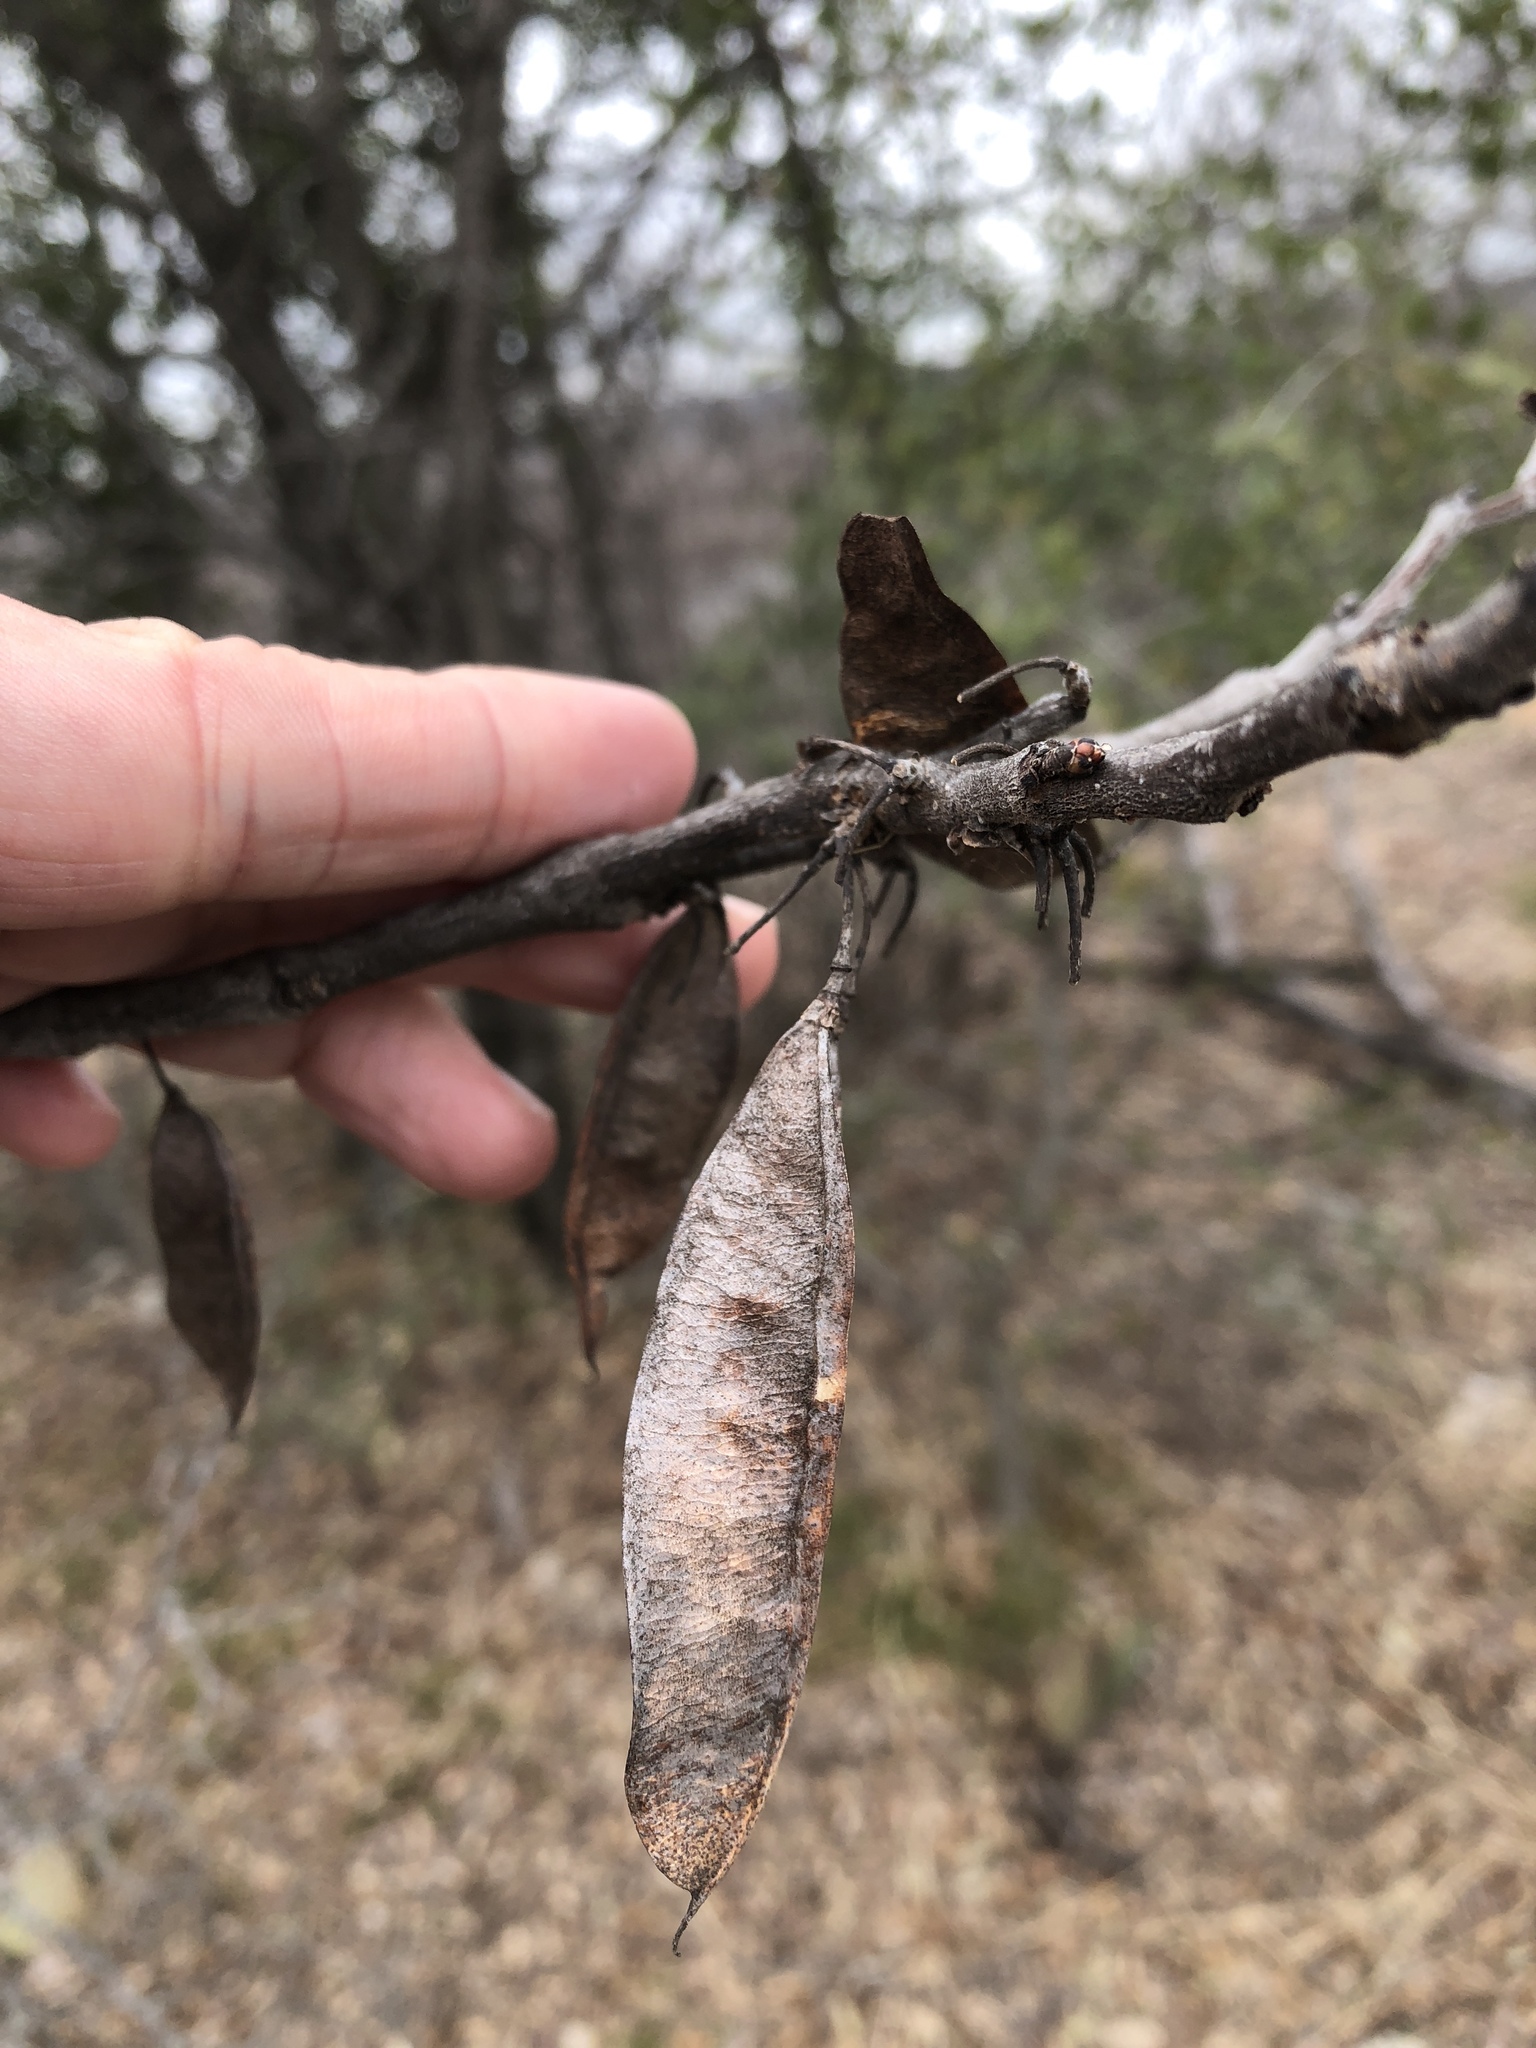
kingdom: Plantae
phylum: Tracheophyta
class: Magnoliopsida
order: Fabales
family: Fabaceae
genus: Cercis
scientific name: Cercis canadensis
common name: Eastern redbud
